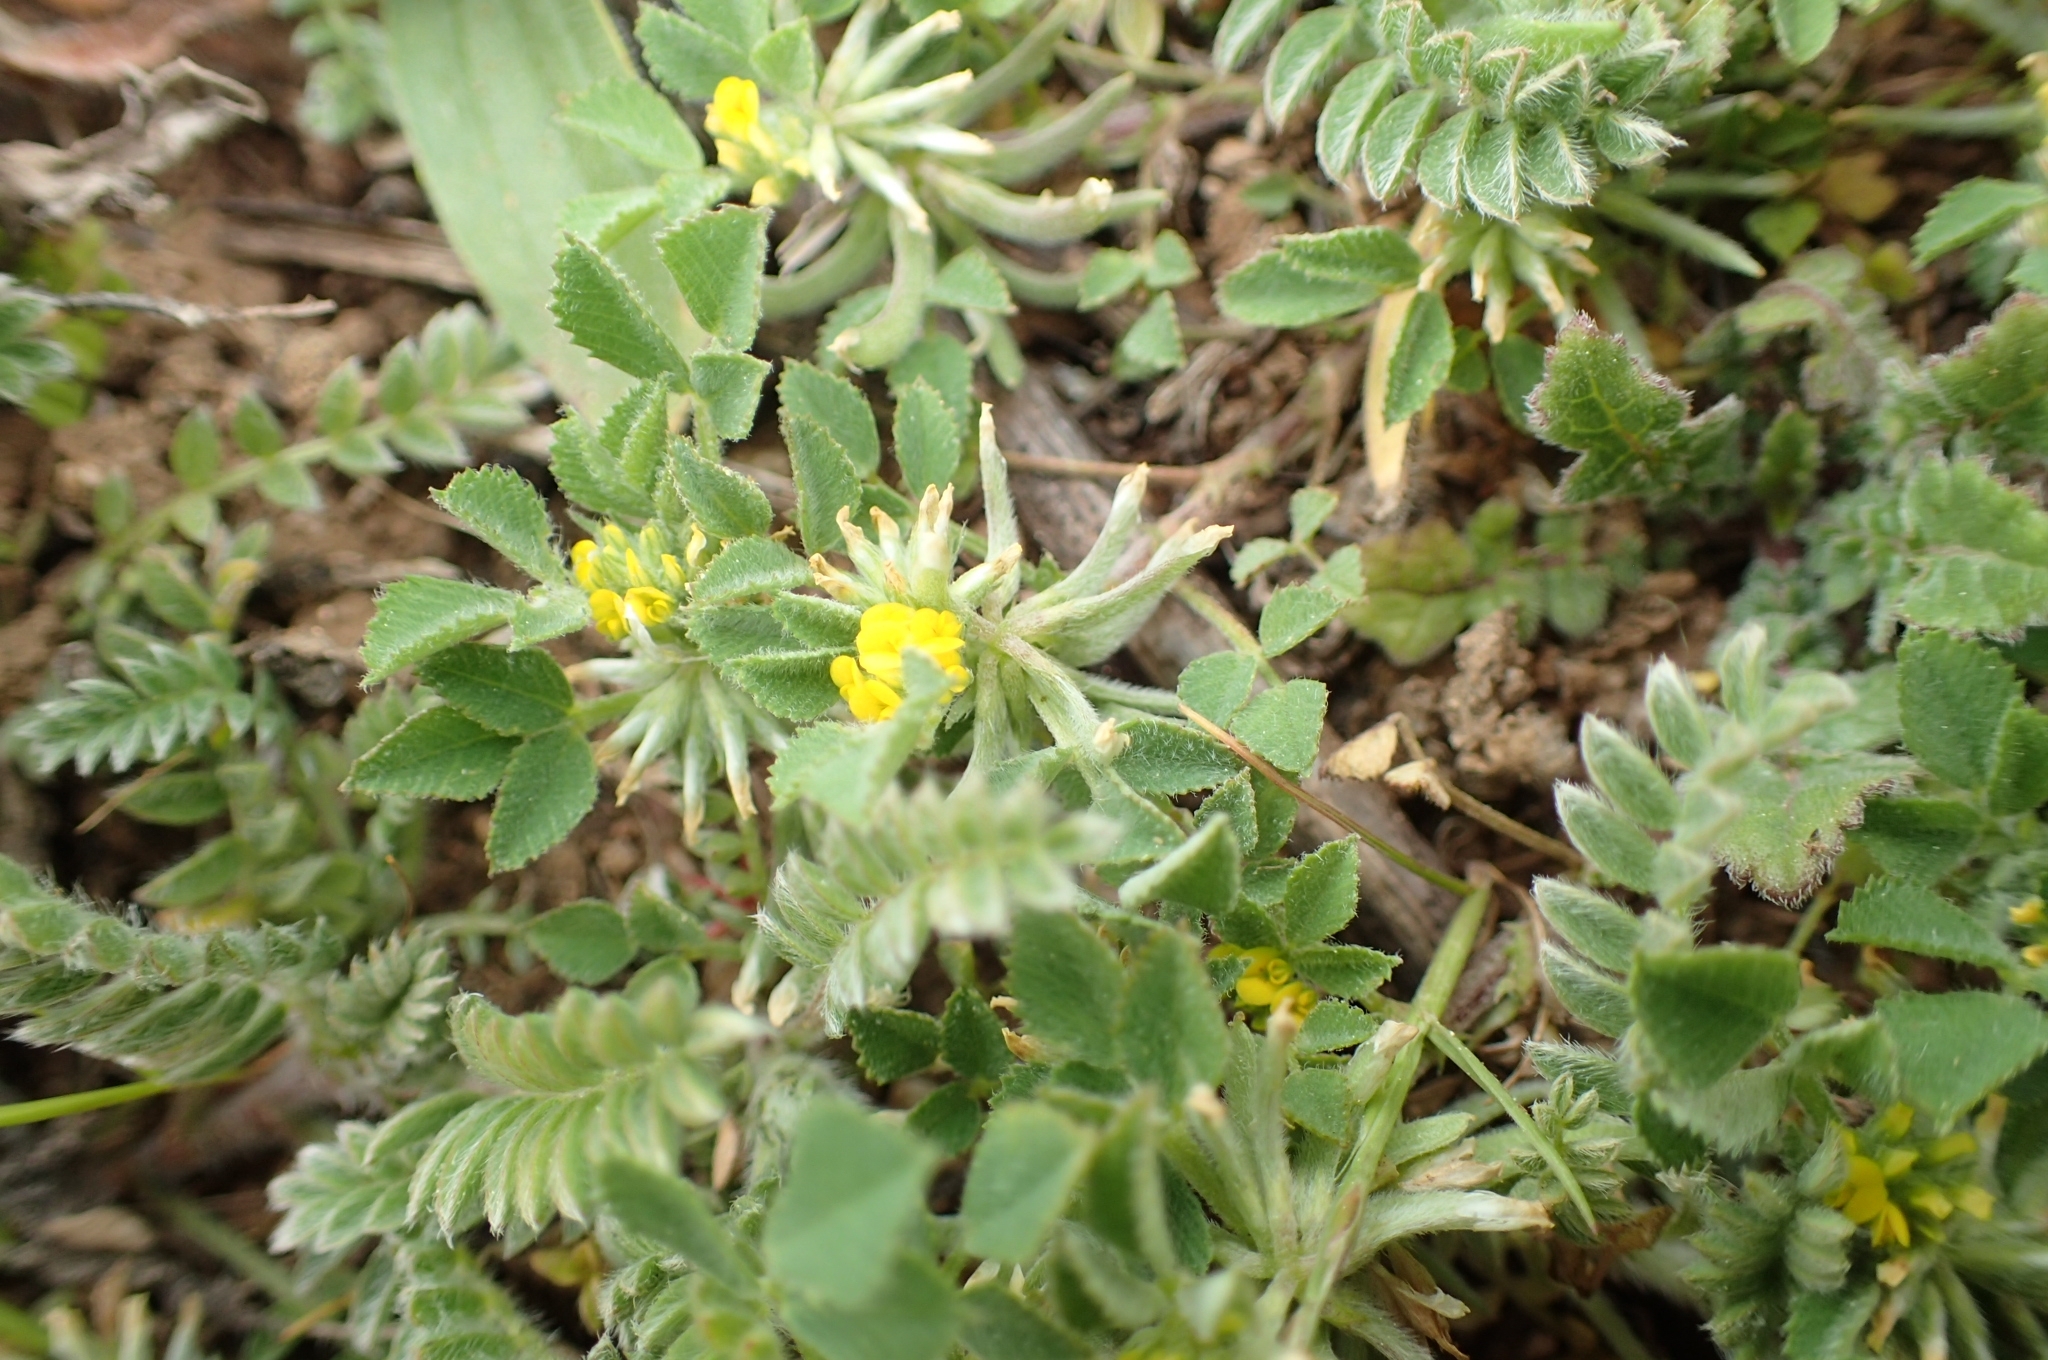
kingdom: Plantae
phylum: Tracheophyta
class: Magnoliopsida
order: Fabales
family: Fabaceae
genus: Medicago
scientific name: Medicago monspeliaca
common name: Hairy medick
